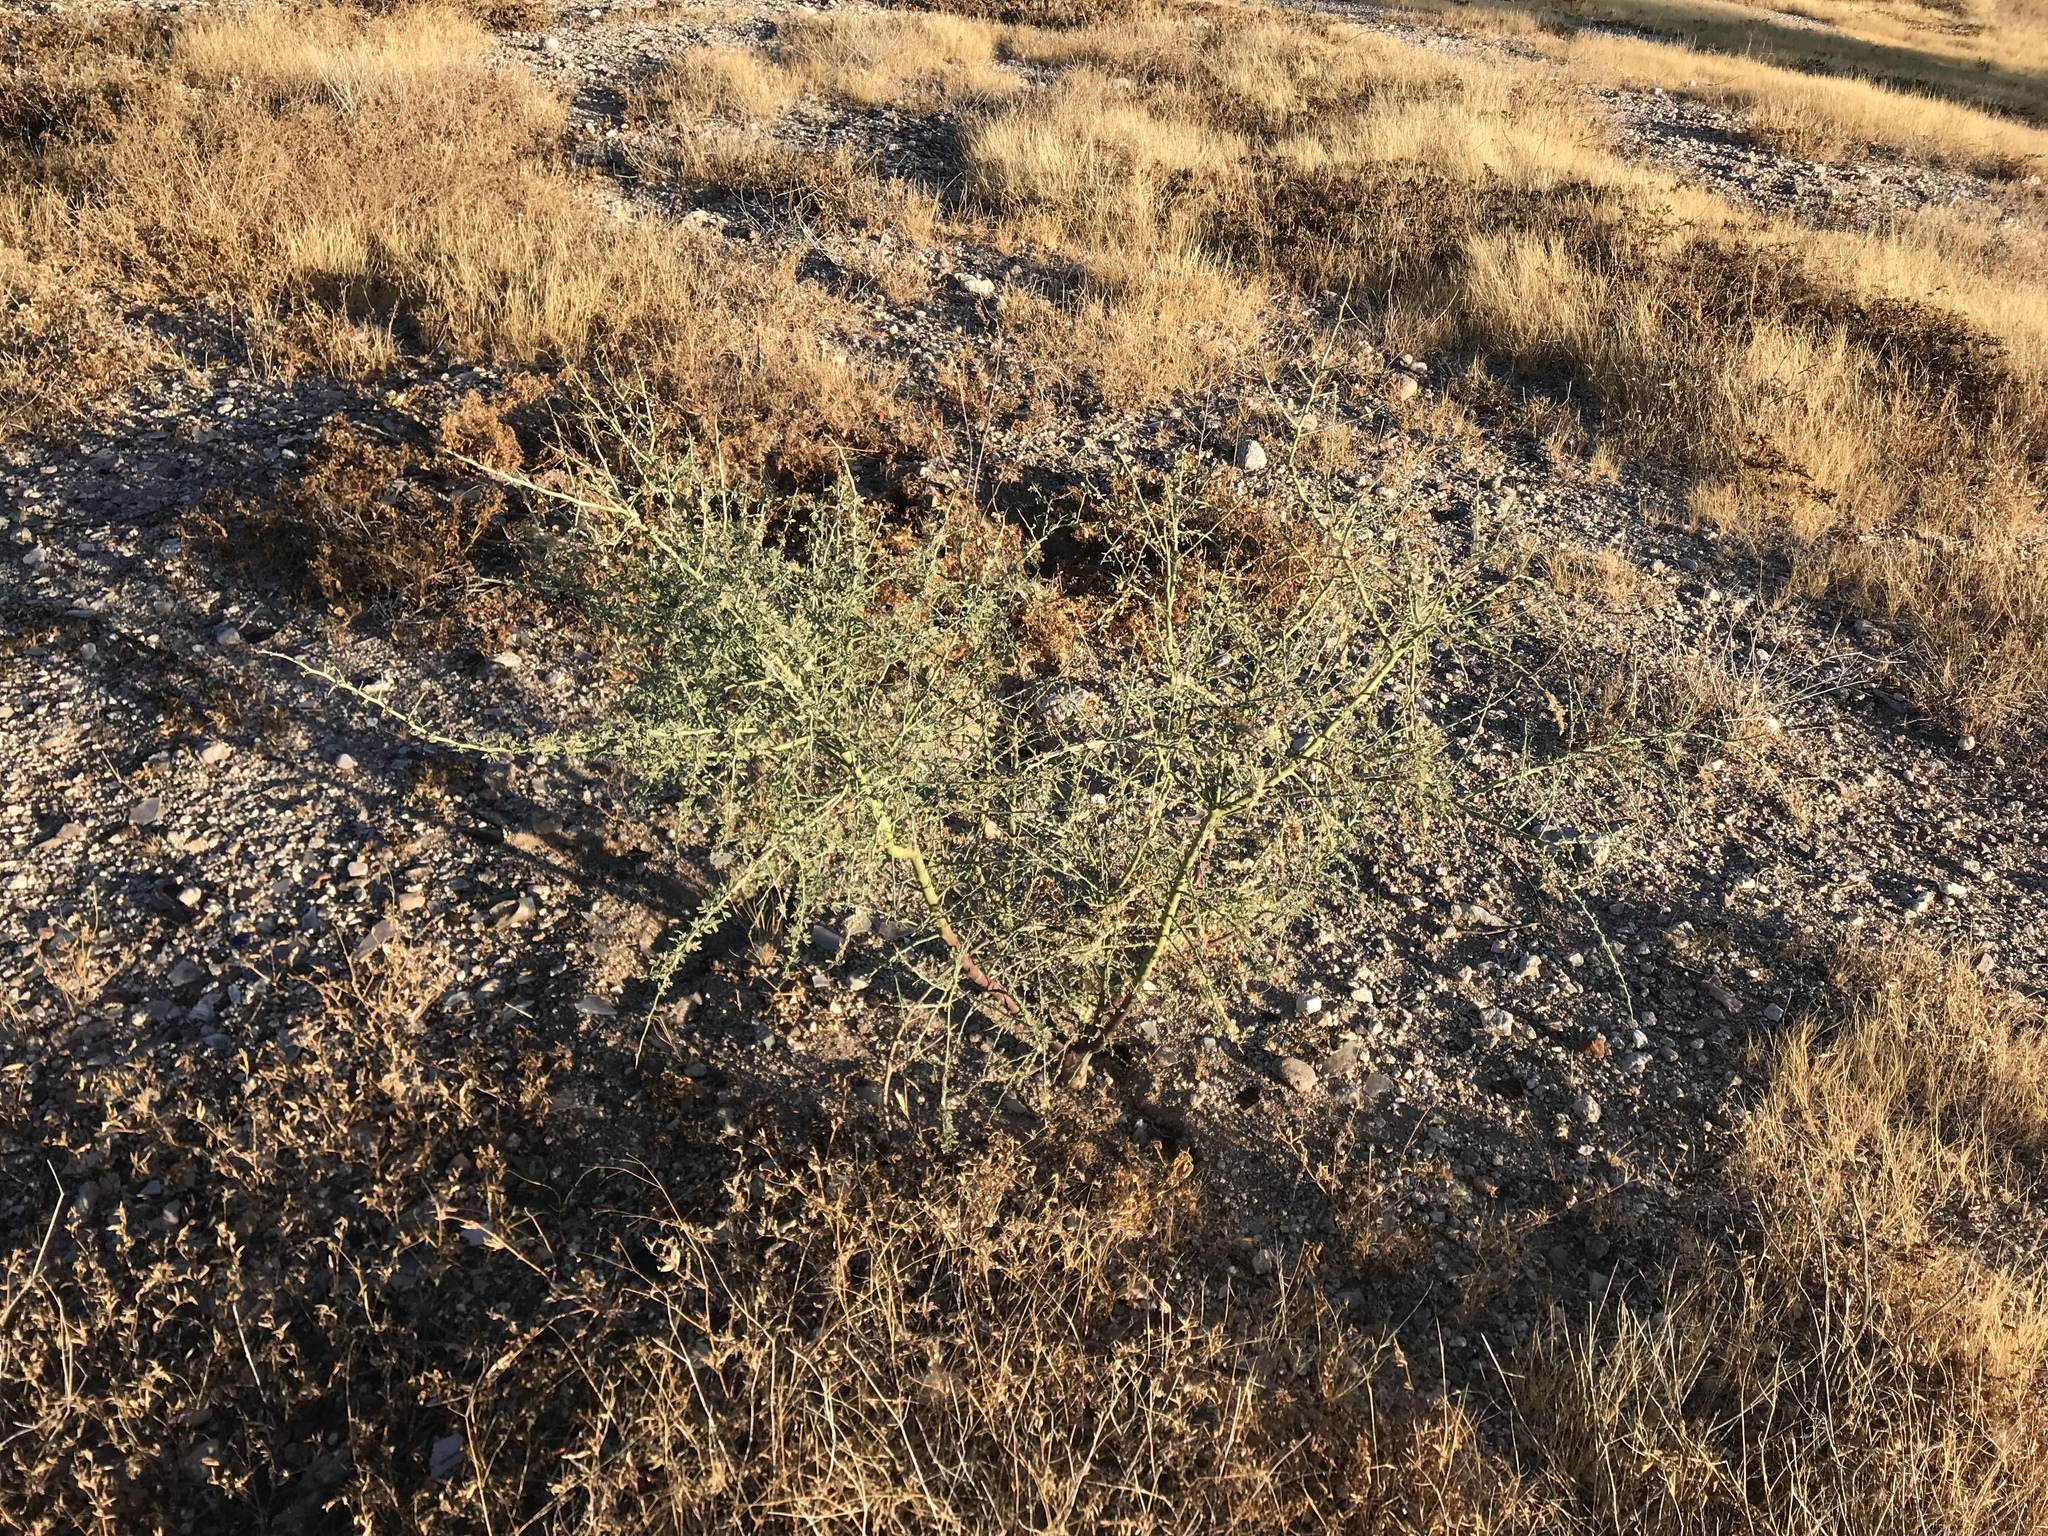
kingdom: Plantae
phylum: Tracheophyta
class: Magnoliopsida
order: Fabales
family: Fabaceae
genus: Parkinsonia
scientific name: Parkinsonia florida
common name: Blue paloverde
